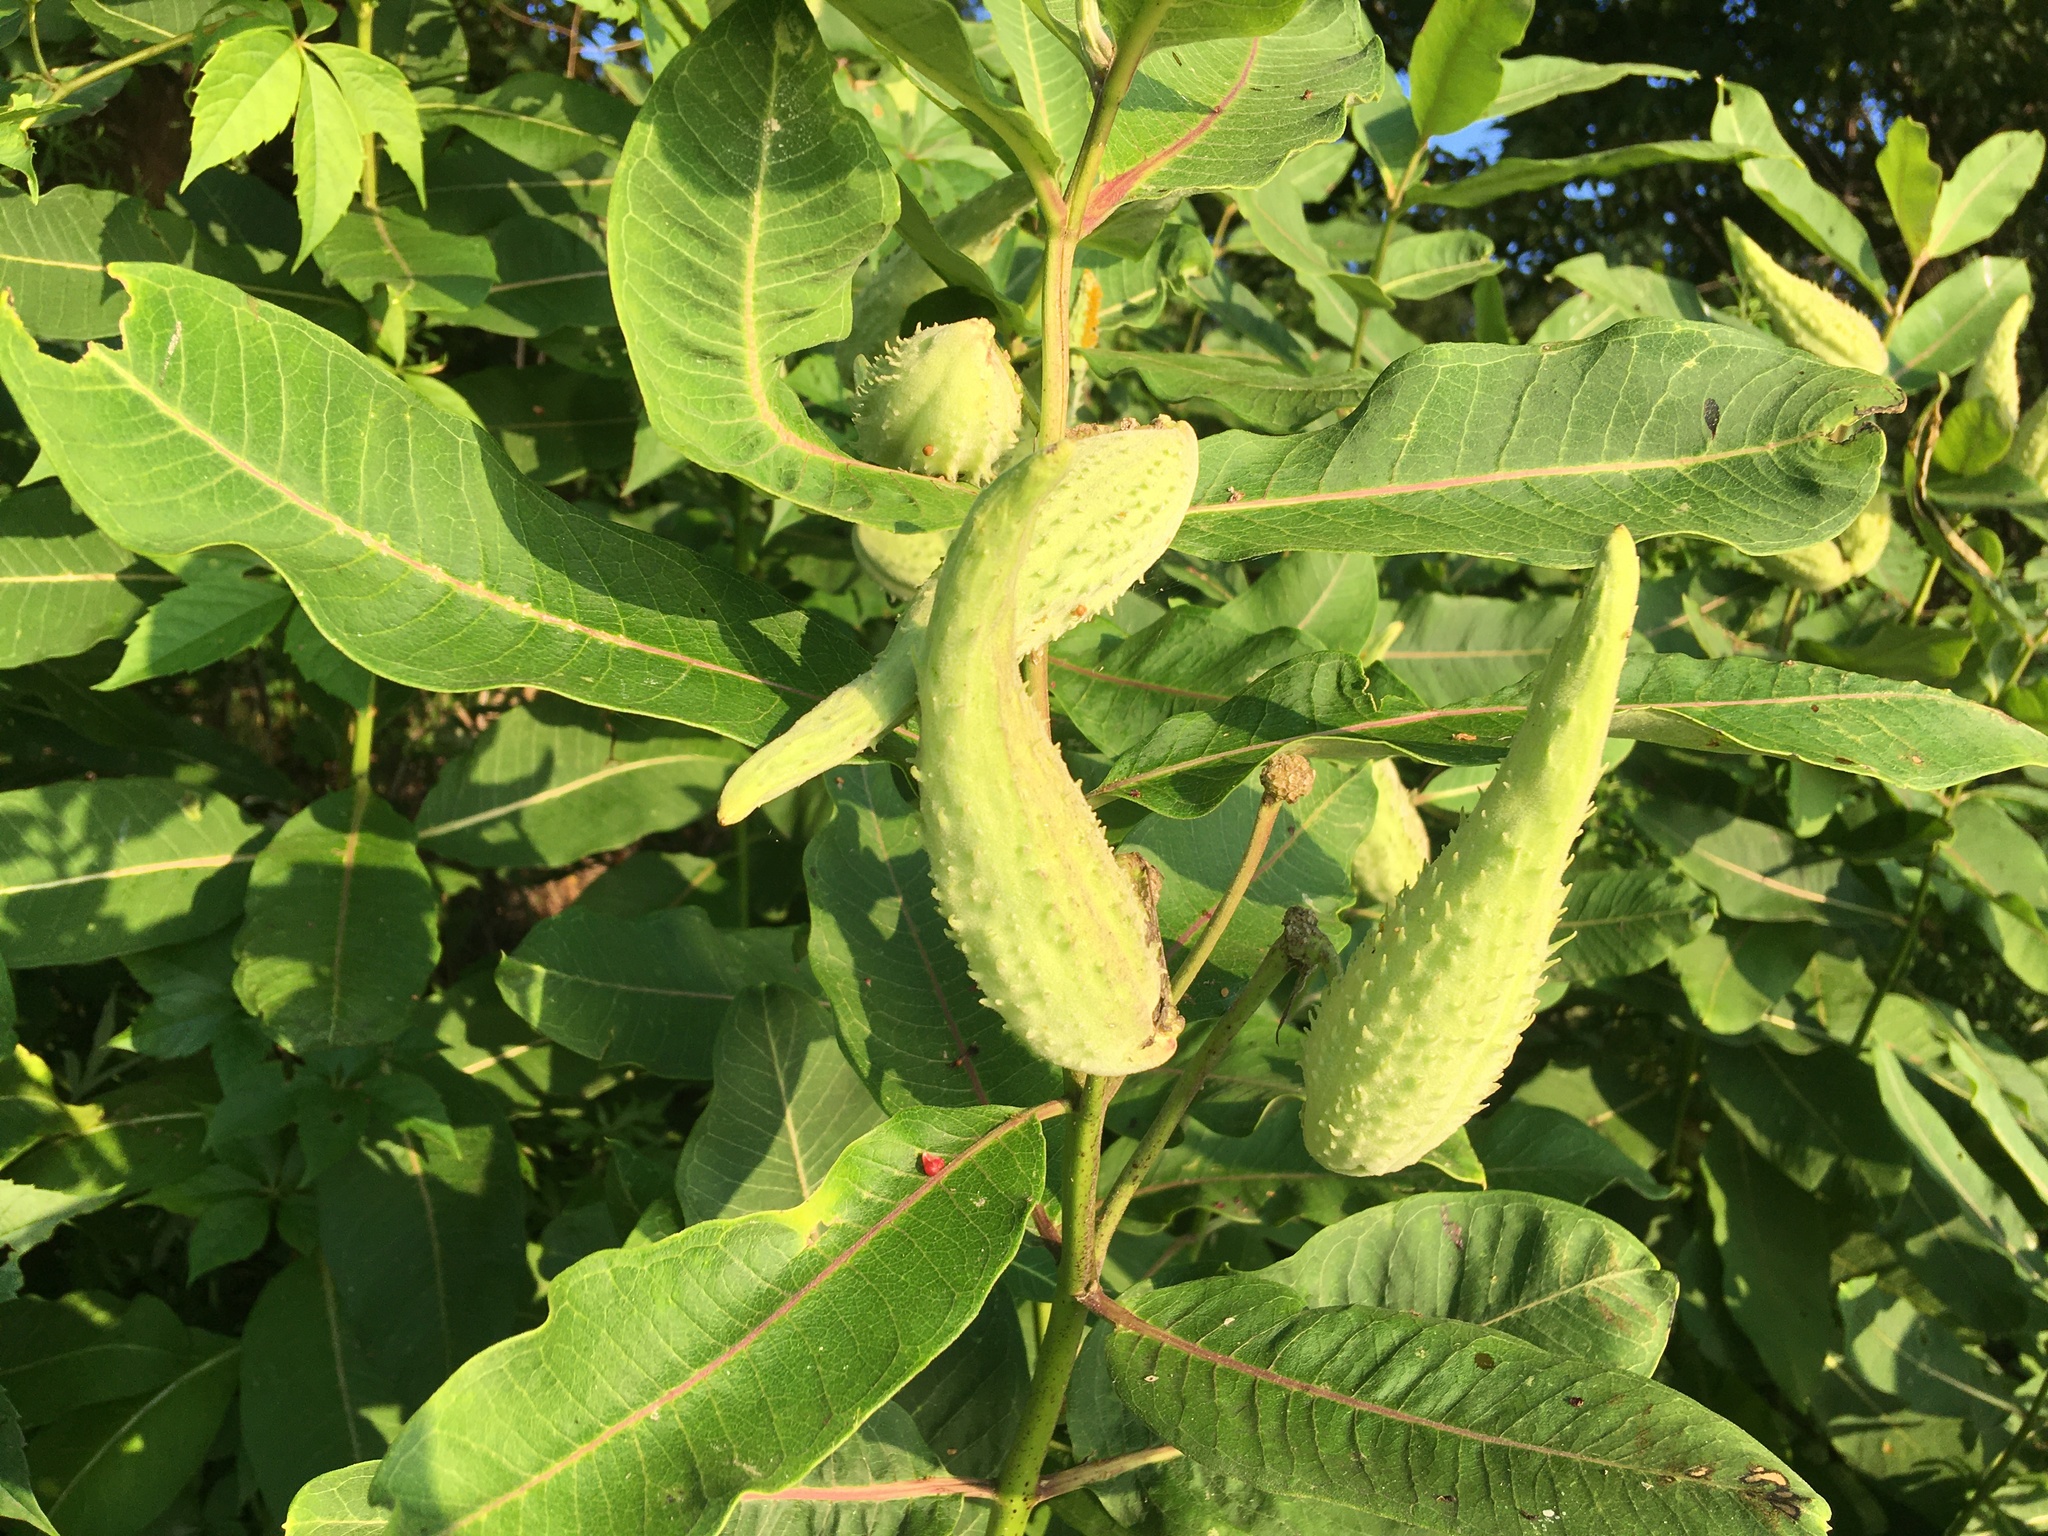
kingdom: Plantae
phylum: Tracheophyta
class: Magnoliopsida
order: Gentianales
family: Apocynaceae
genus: Asclepias
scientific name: Asclepias syriaca
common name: Common milkweed
